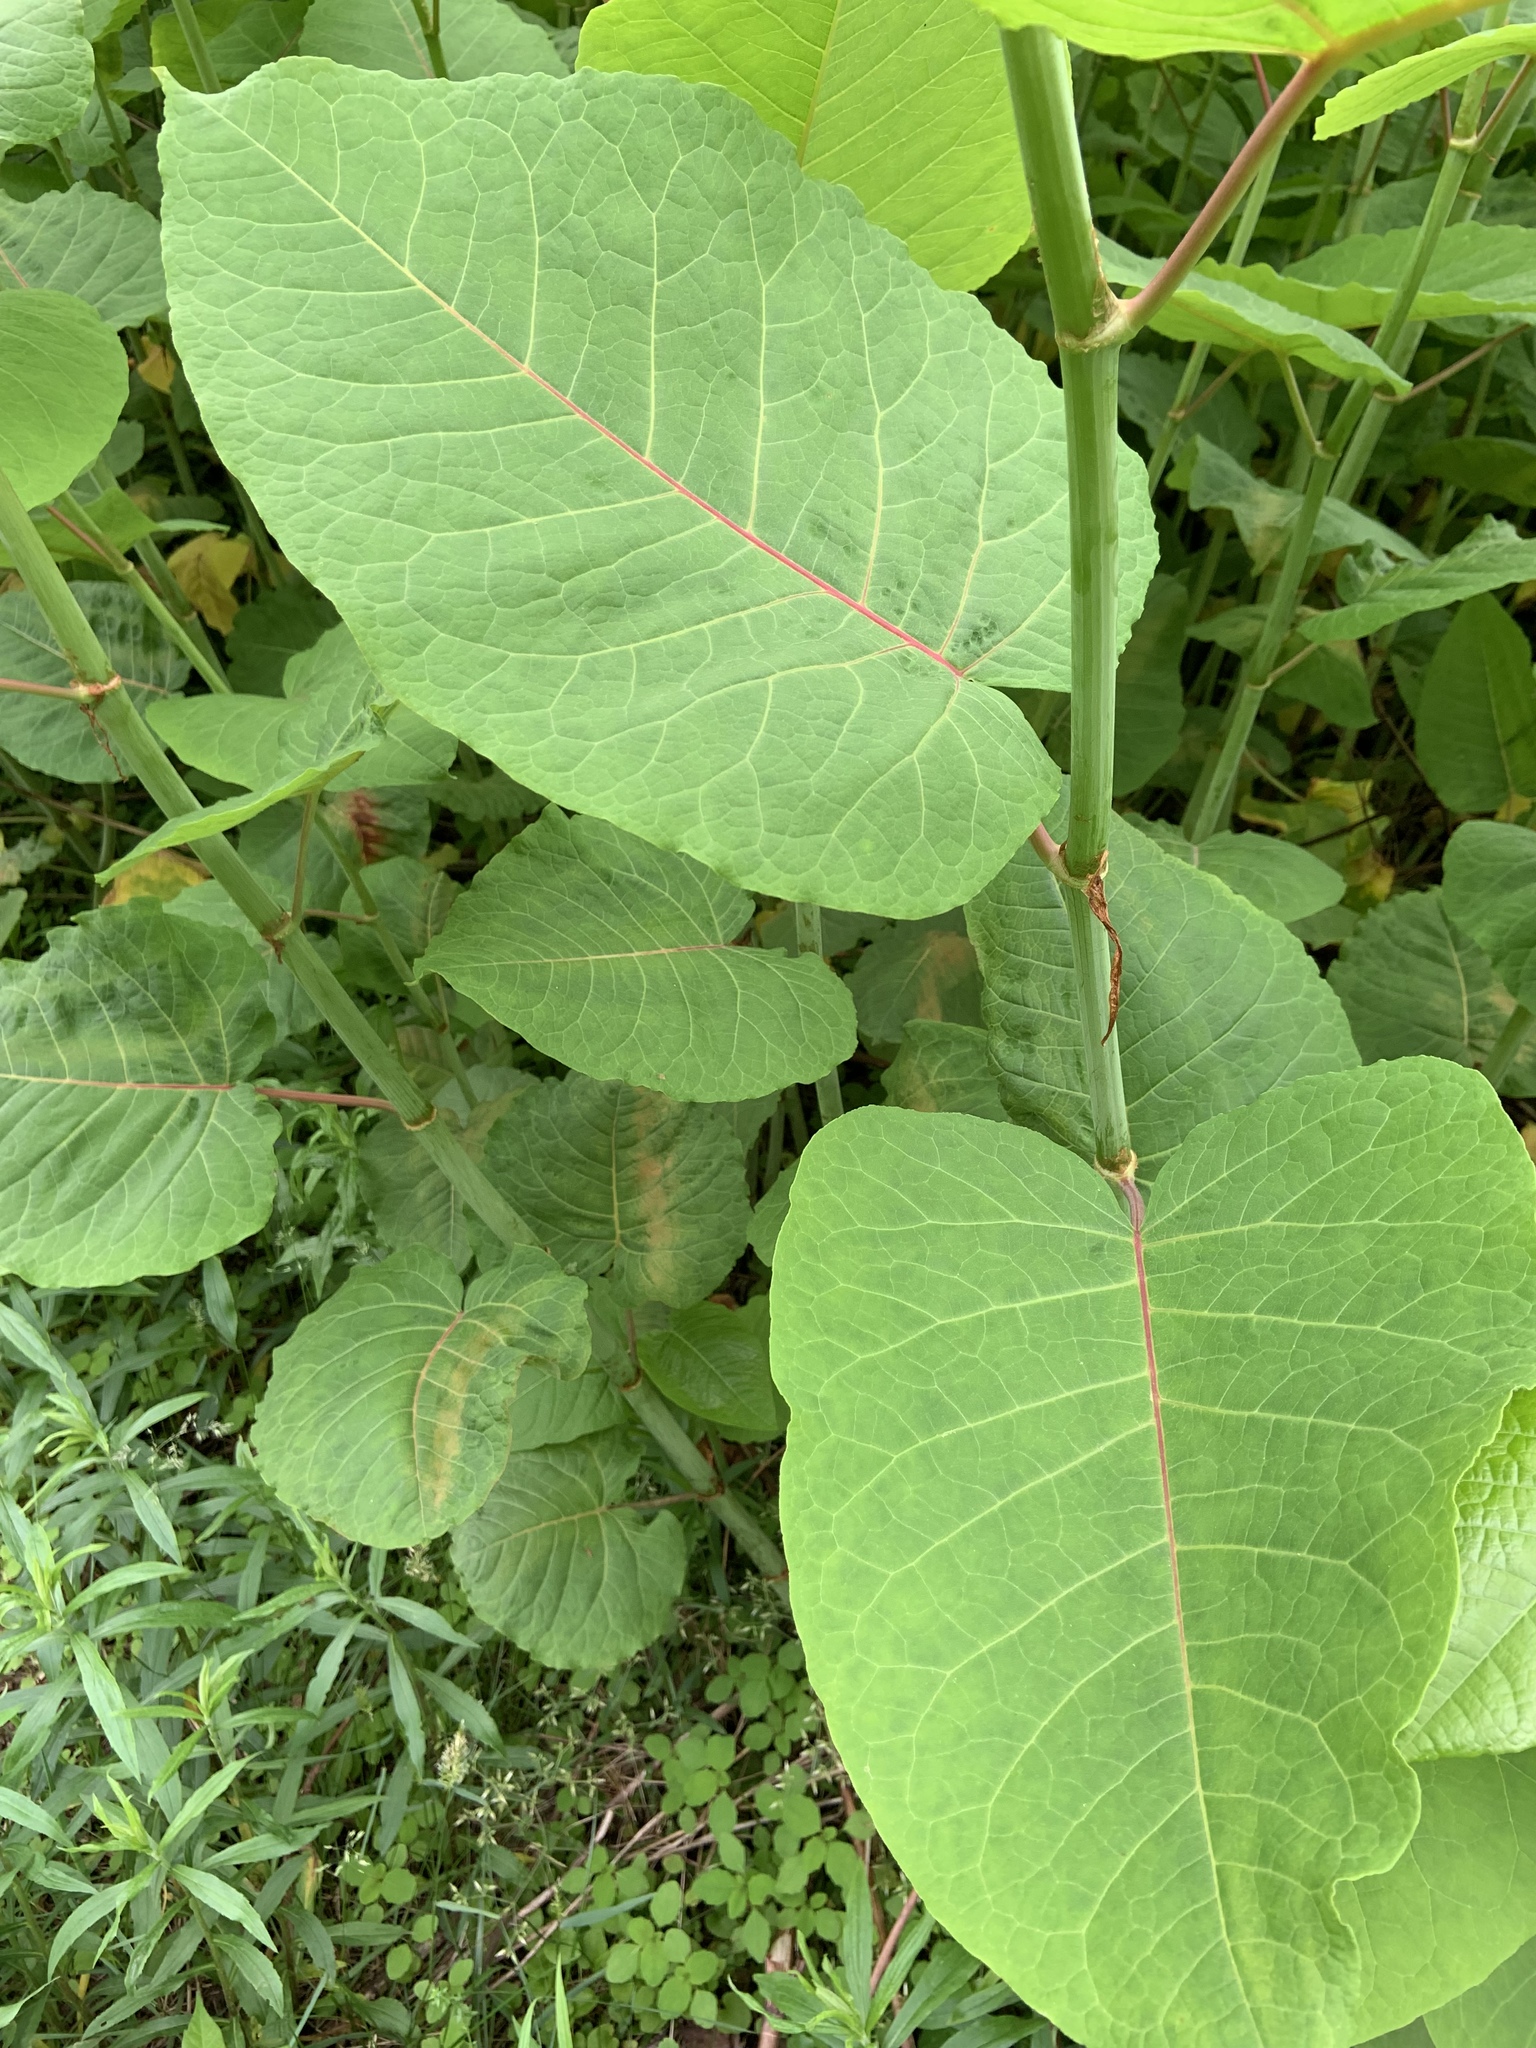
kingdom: Plantae
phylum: Tracheophyta
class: Magnoliopsida
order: Caryophyllales
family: Polygonaceae
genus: Reynoutria
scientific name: Reynoutria sachalinensis
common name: Giant knotweed
